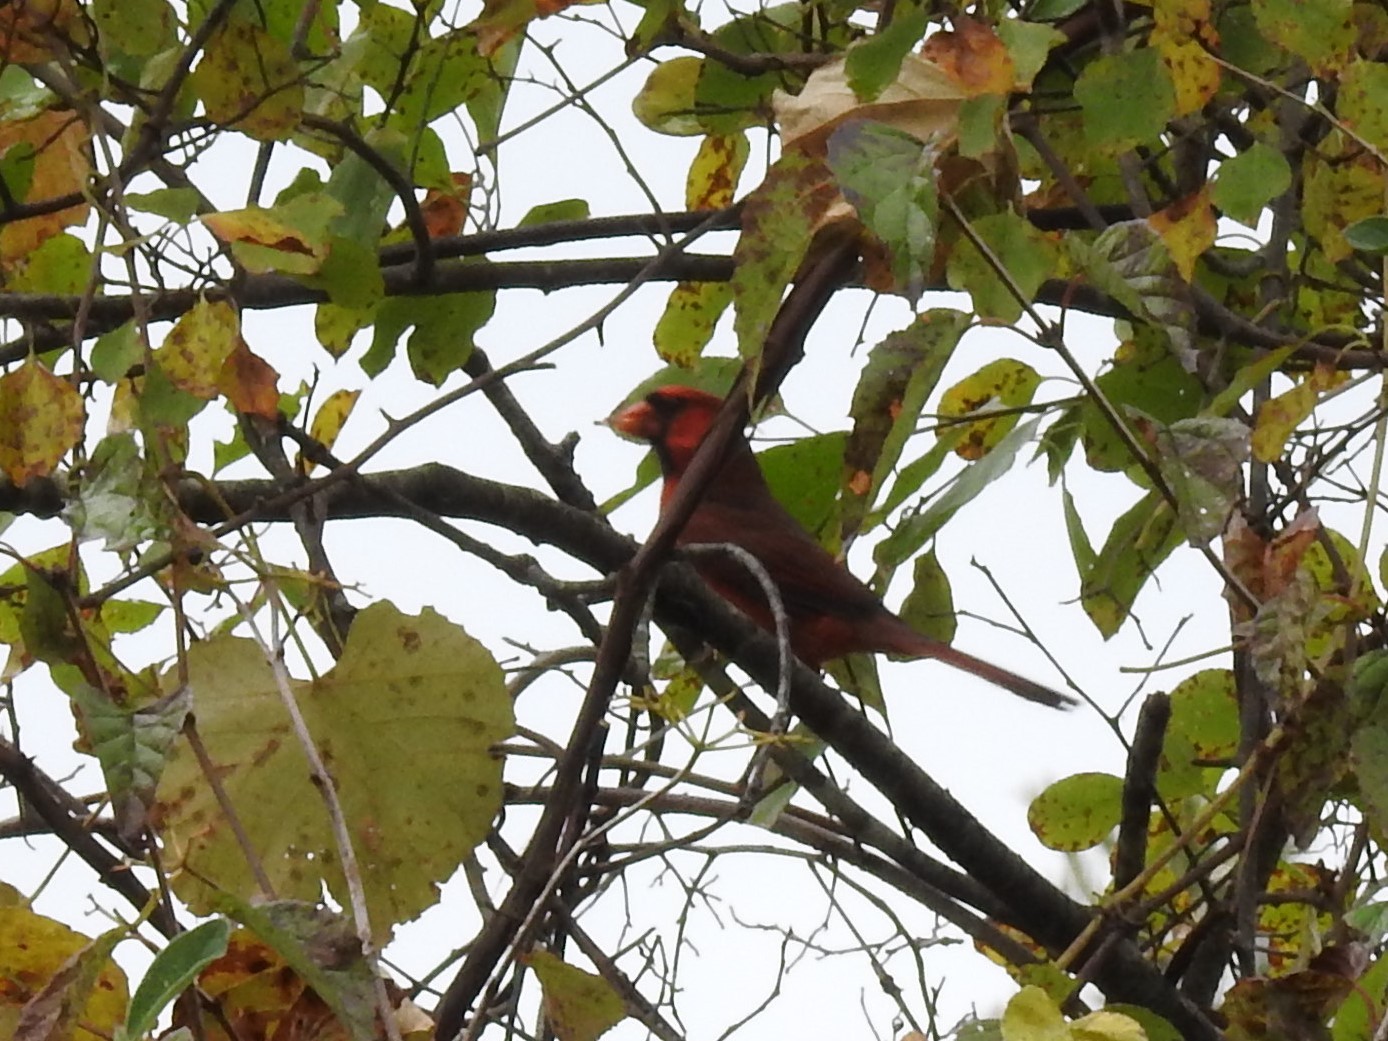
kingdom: Animalia
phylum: Chordata
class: Aves
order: Passeriformes
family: Cardinalidae
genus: Cardinalis
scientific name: Cardinalis cardinalis
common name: Northern cardinal
